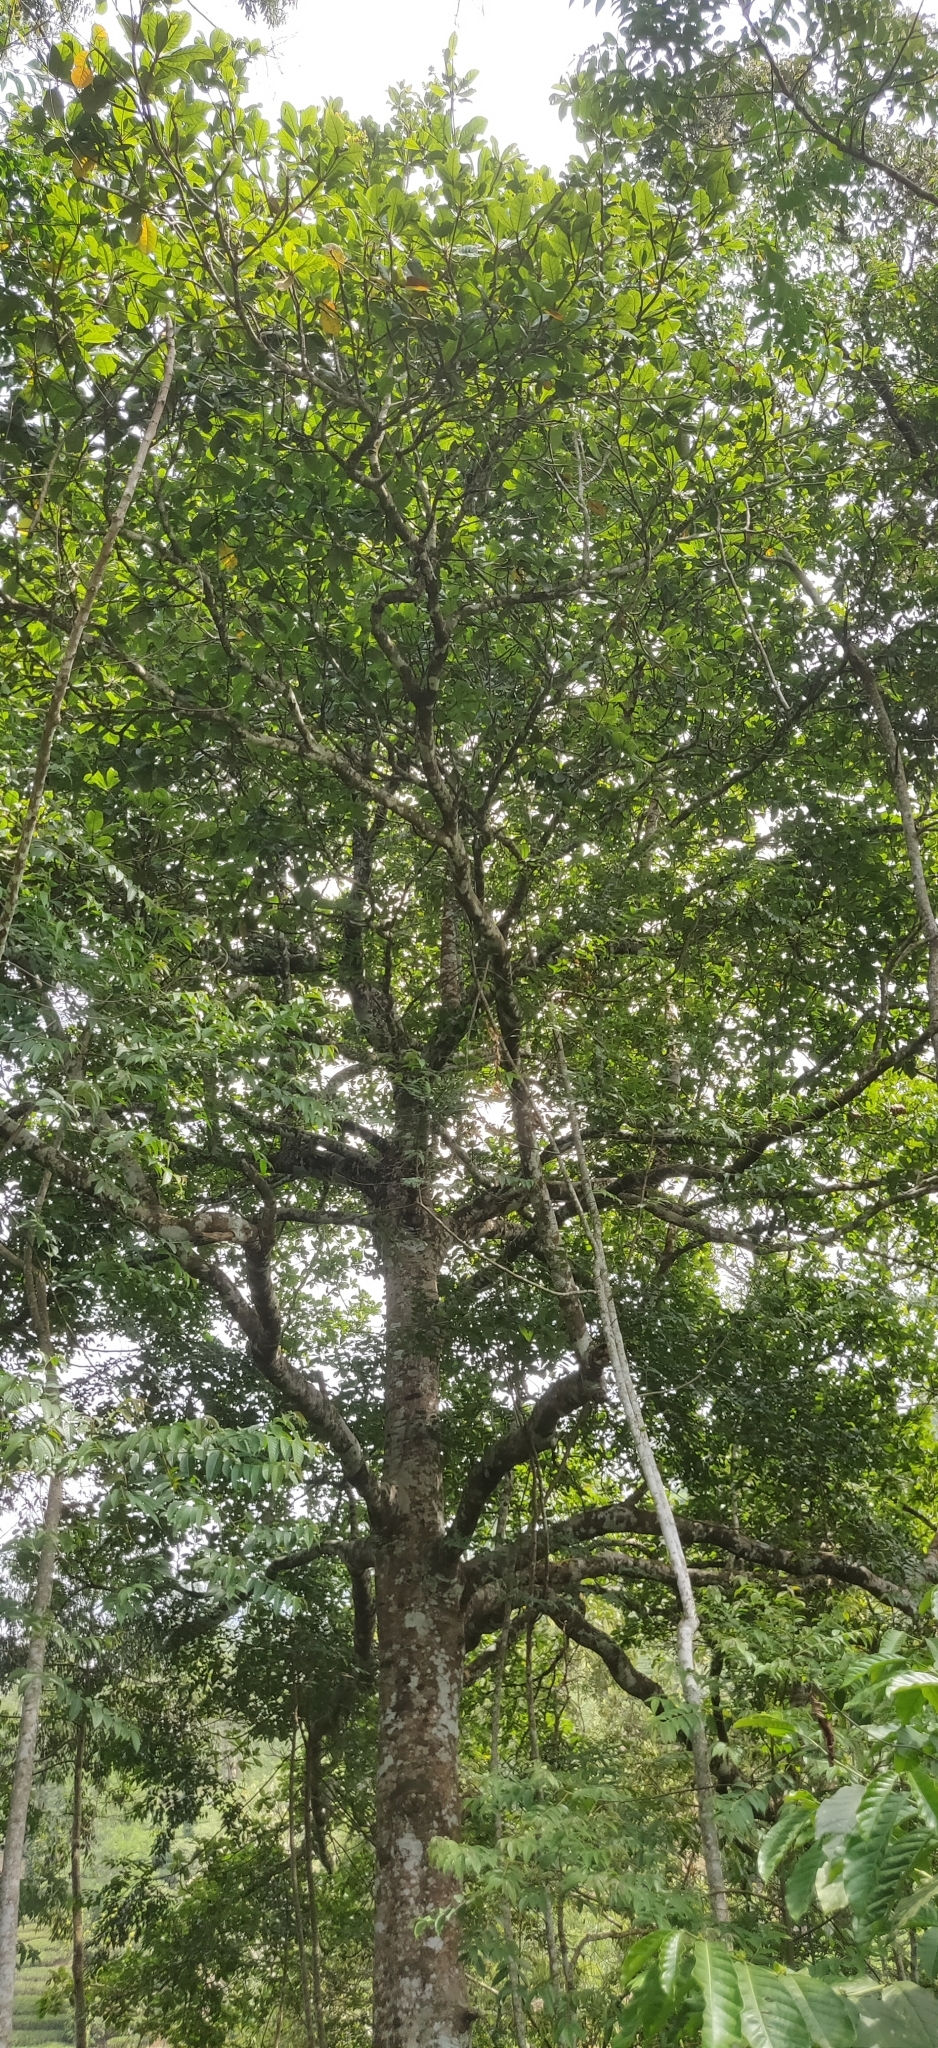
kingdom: Plantae
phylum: Tracheophyta
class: Magnoliopsida
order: Oxalidales
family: Elaeocarpaceae
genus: Elaeocarpus
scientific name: Elaeocarpus tuberculatus
